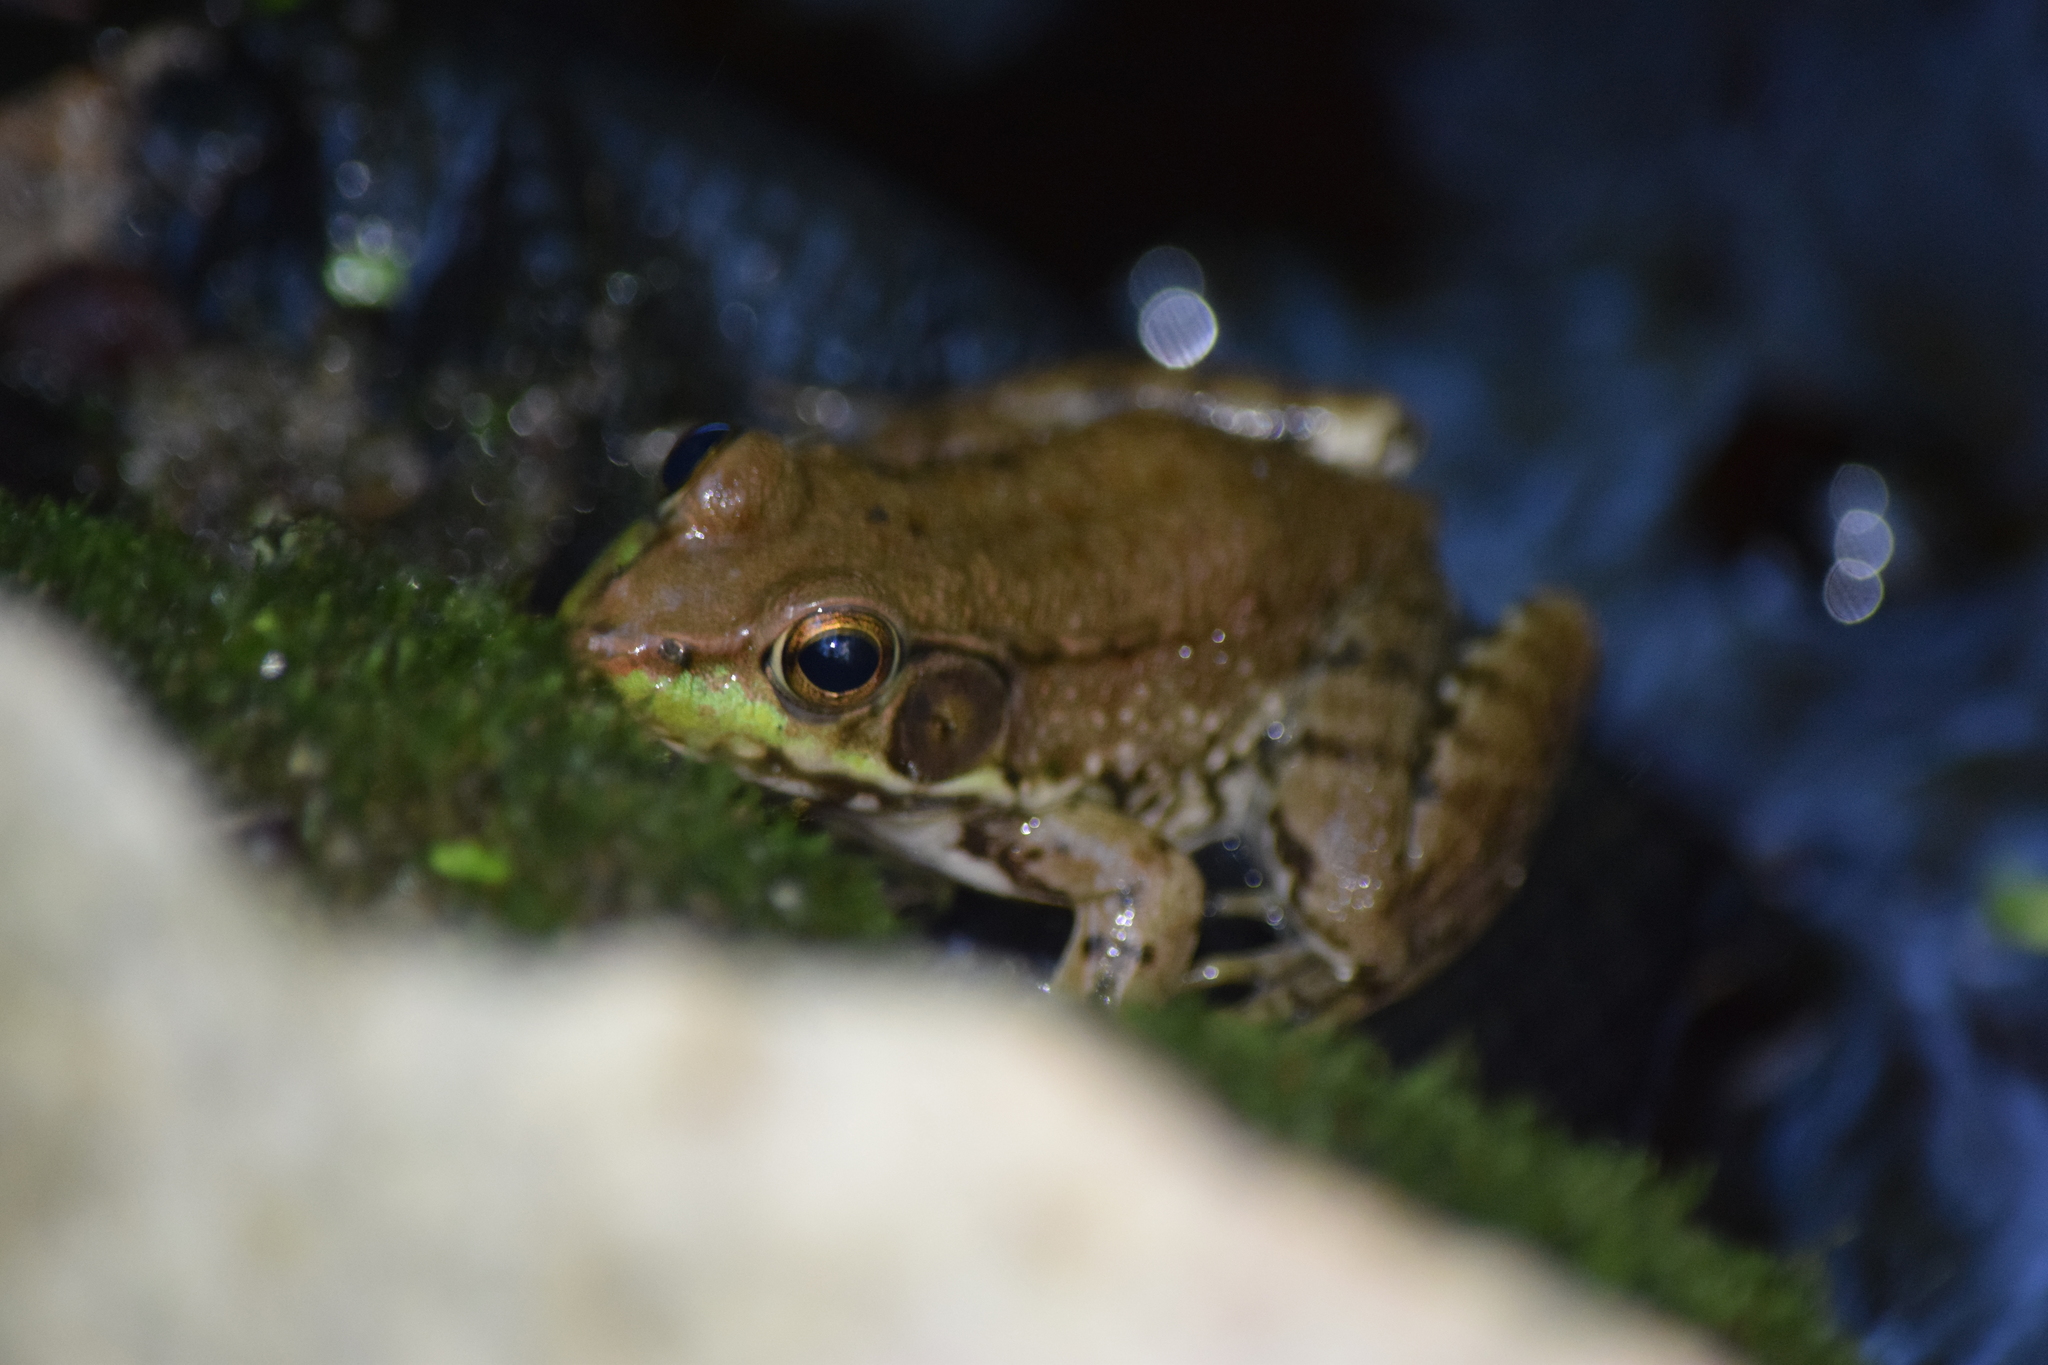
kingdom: Animalia
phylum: Chordata
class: Amphibia
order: Anura
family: Ranidae
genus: Lithobates
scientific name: Lithobates clamitans
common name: Green frog
